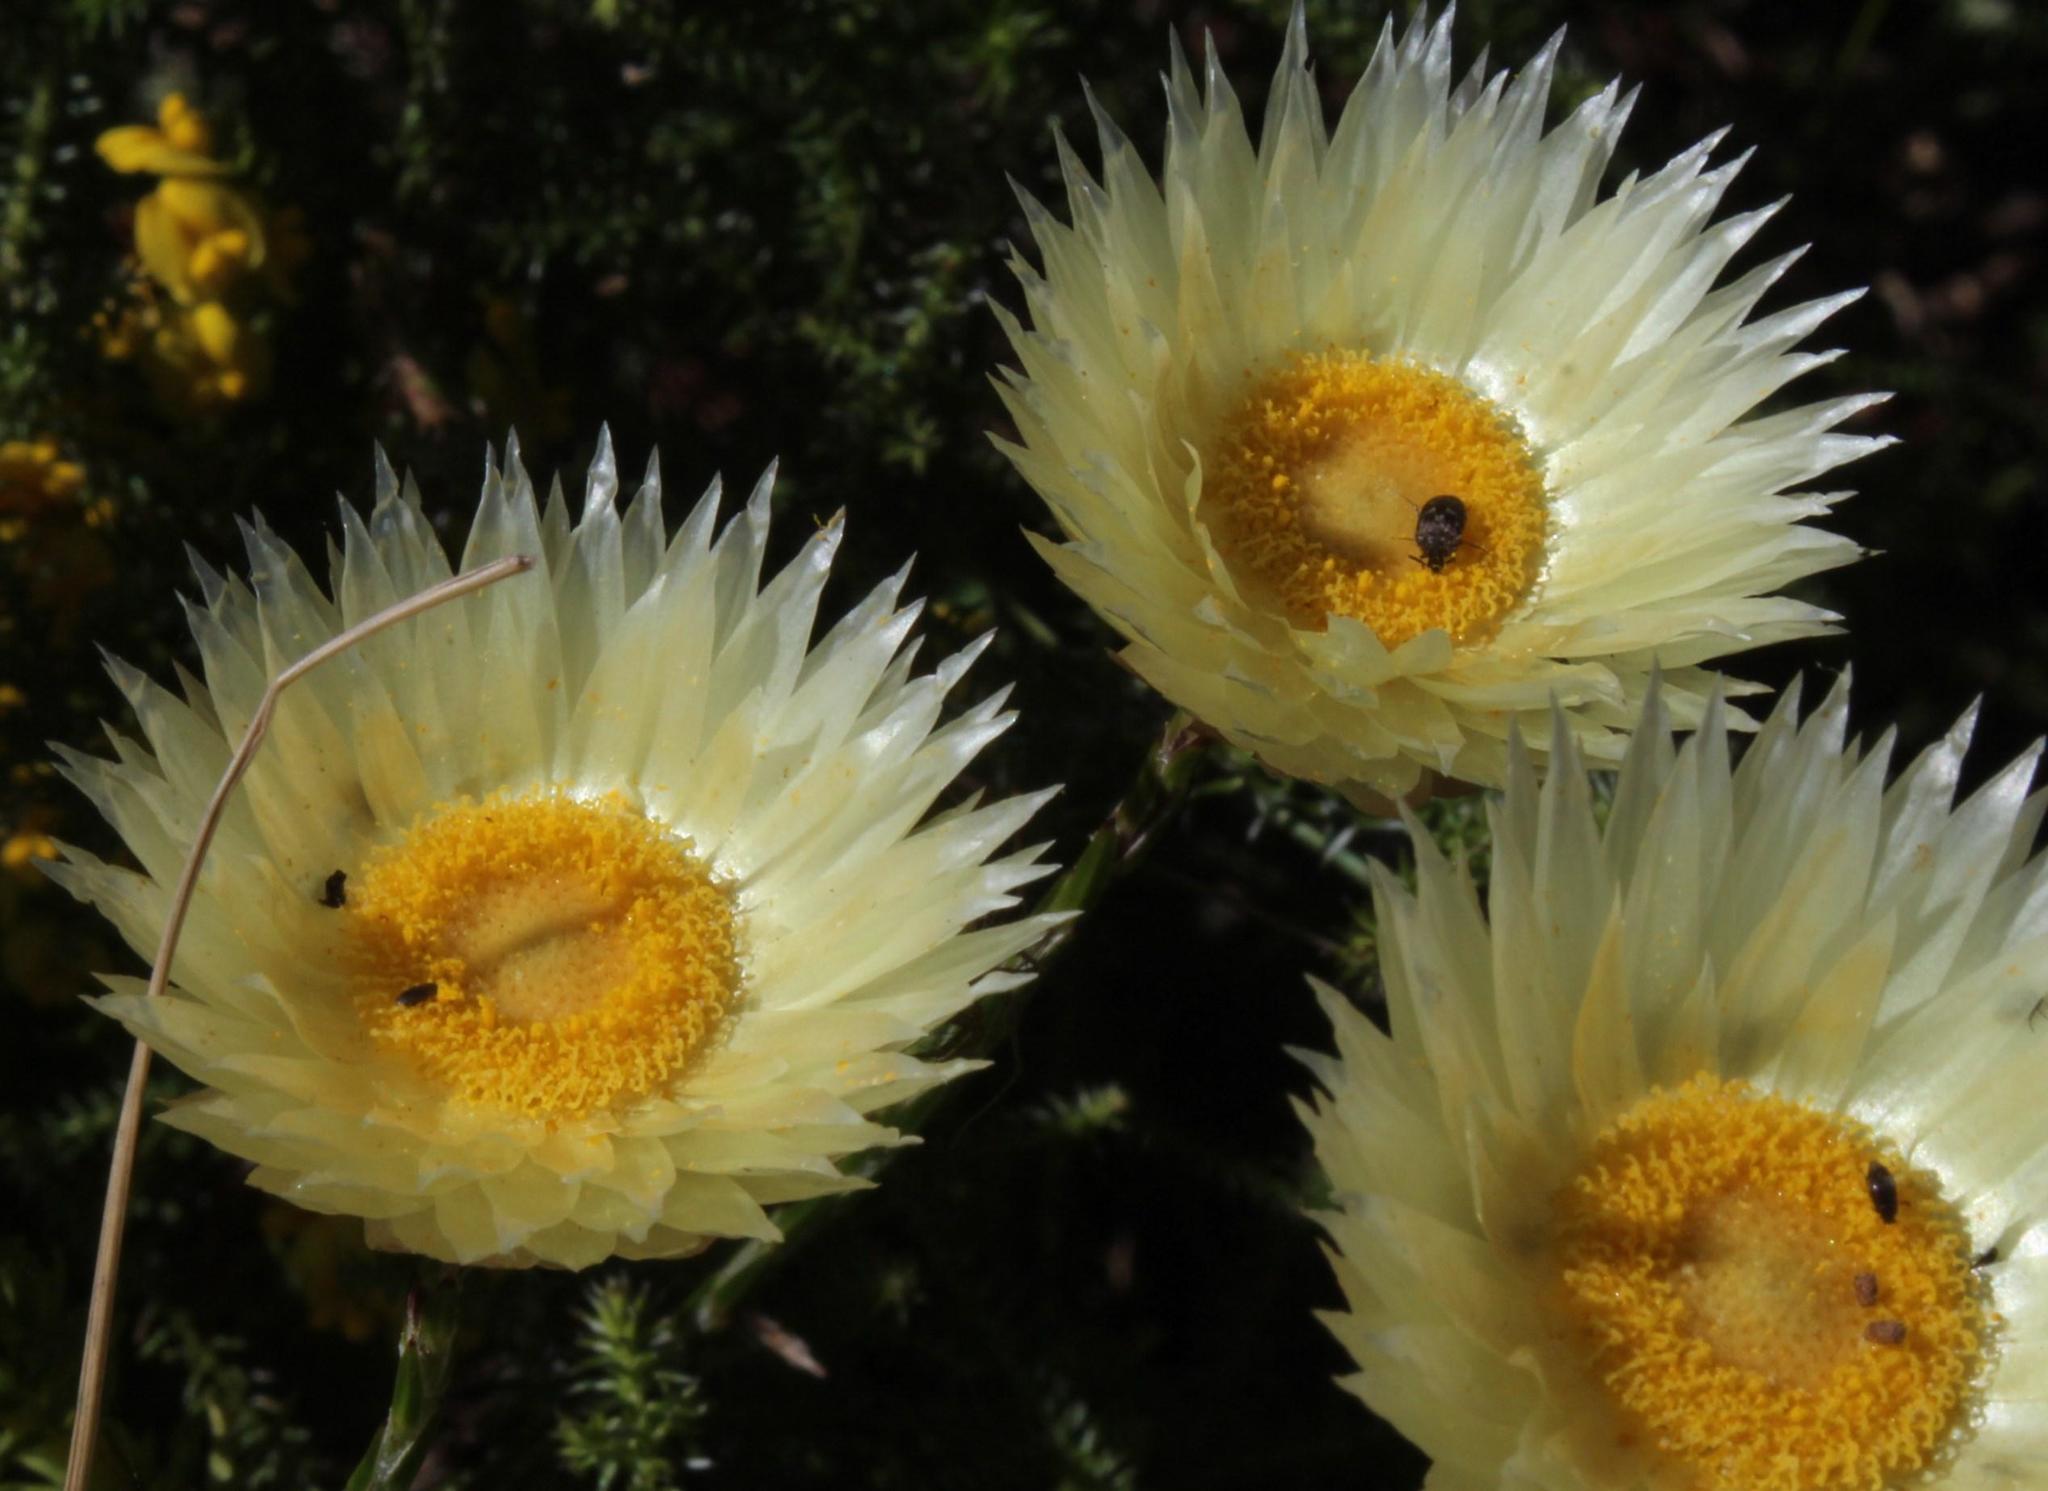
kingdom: Plantae
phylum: Tracheophyta
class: Magnoliopsida
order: Asterales
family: Asteraceae
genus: Edmondia
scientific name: Edmondia sesamoides
